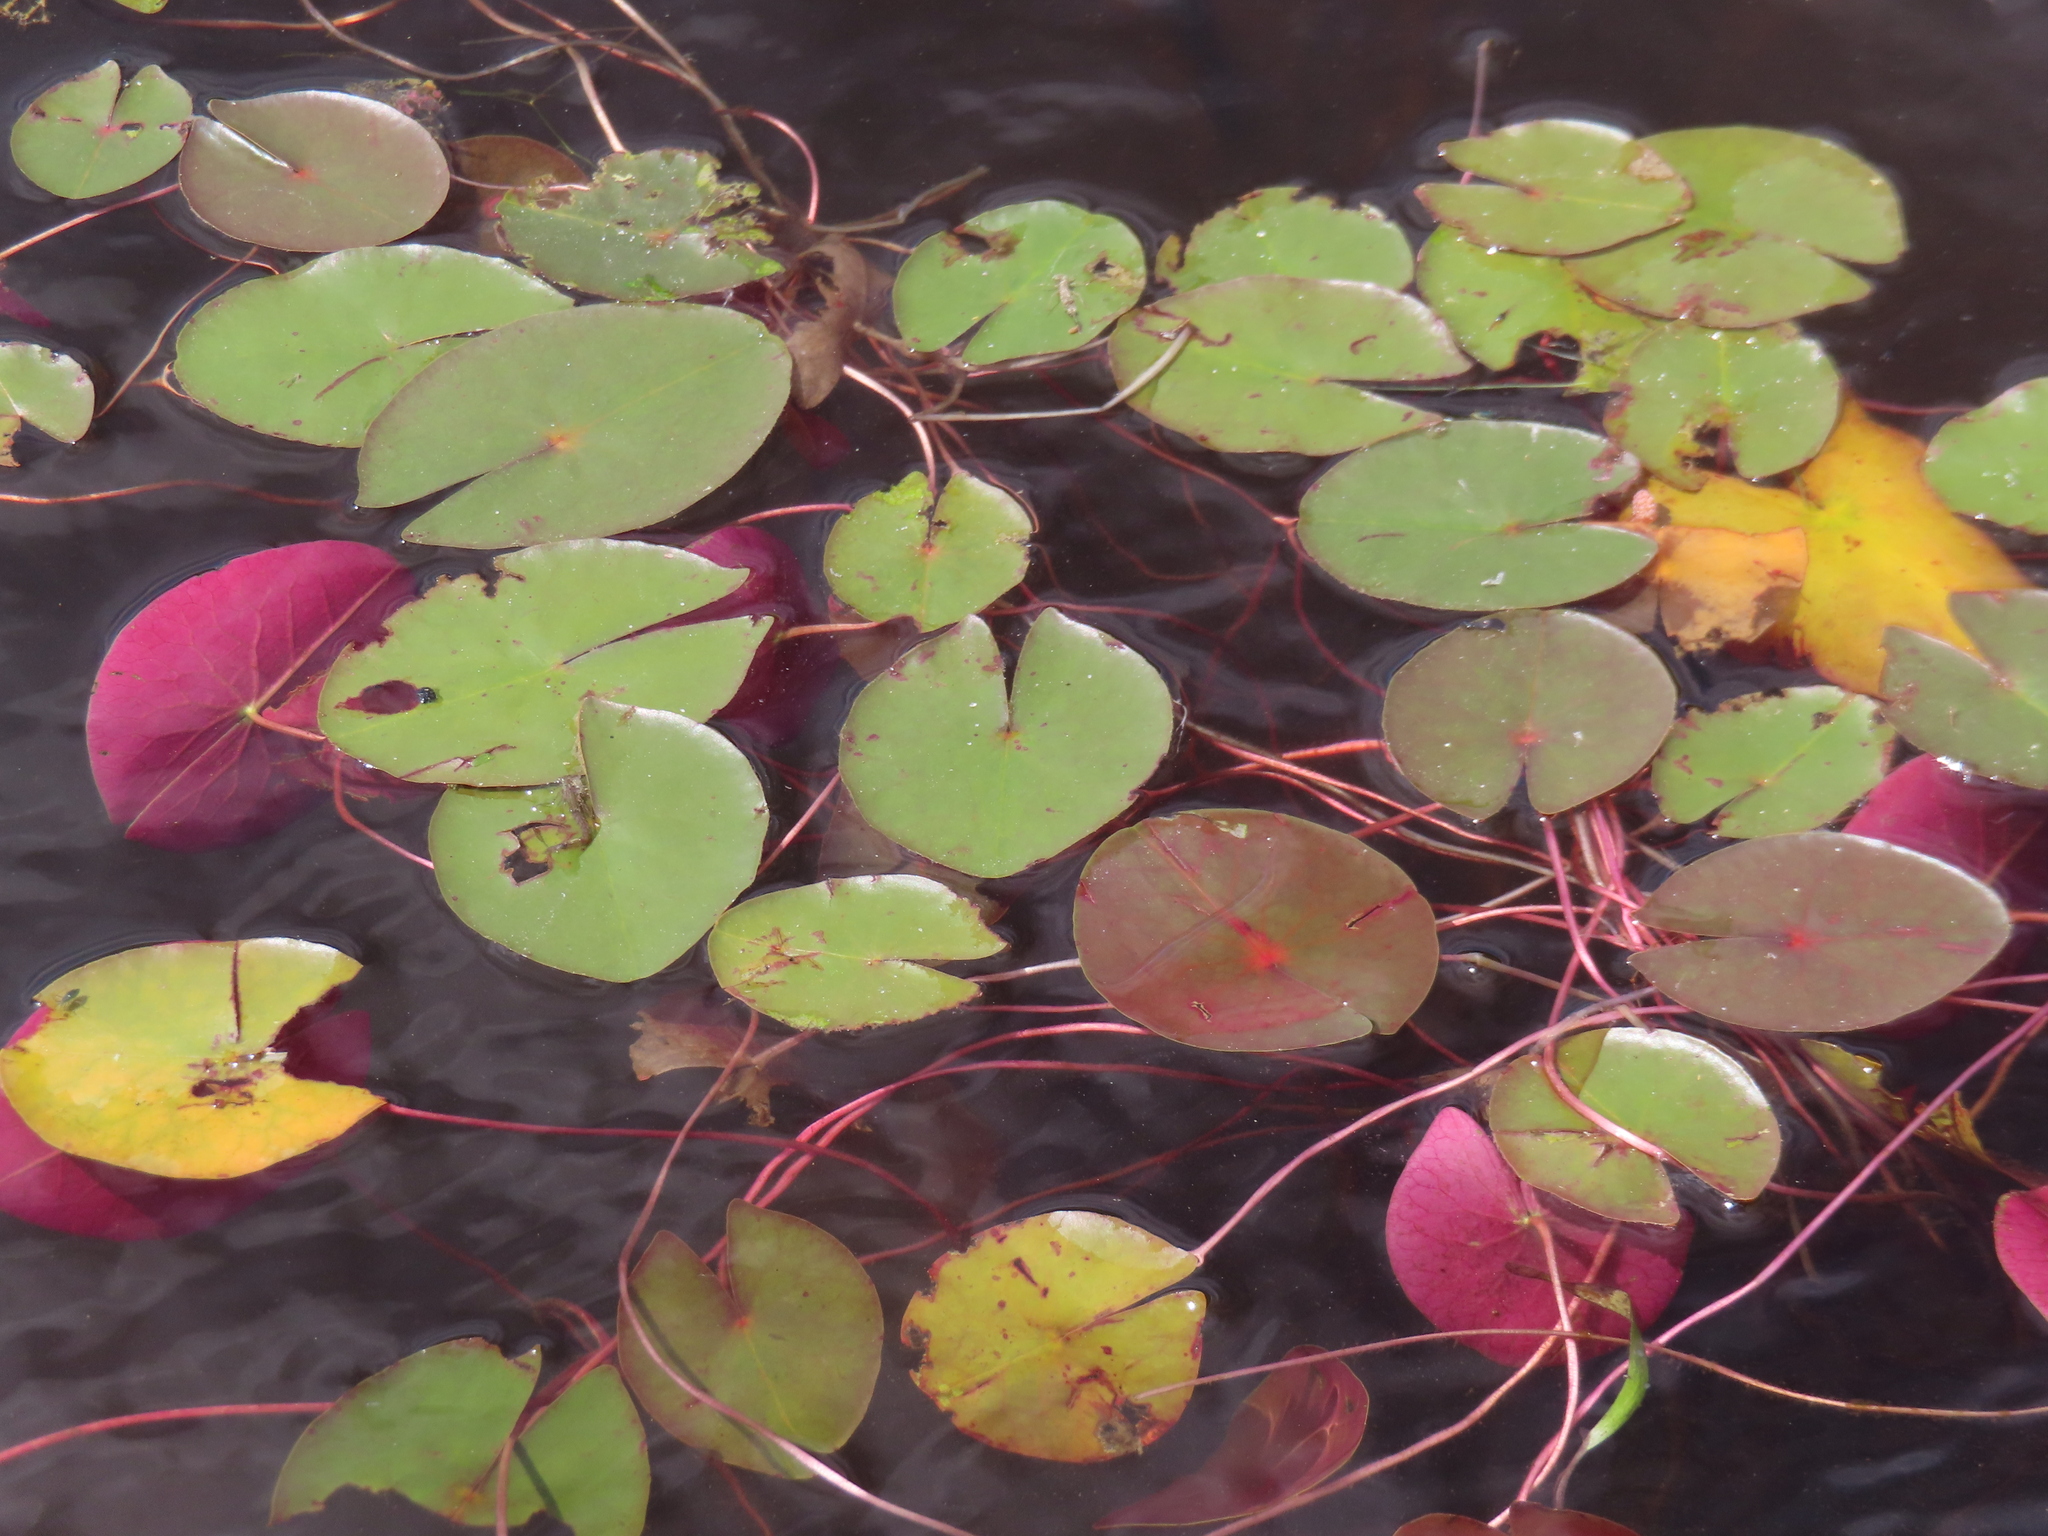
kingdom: Plantae
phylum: Tracheophyta
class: Magnoliopsida
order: Nymphaeales
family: Nymphaeaceae
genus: Nymphaea
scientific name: Nymphaea odorata
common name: Fragrant water-lily
